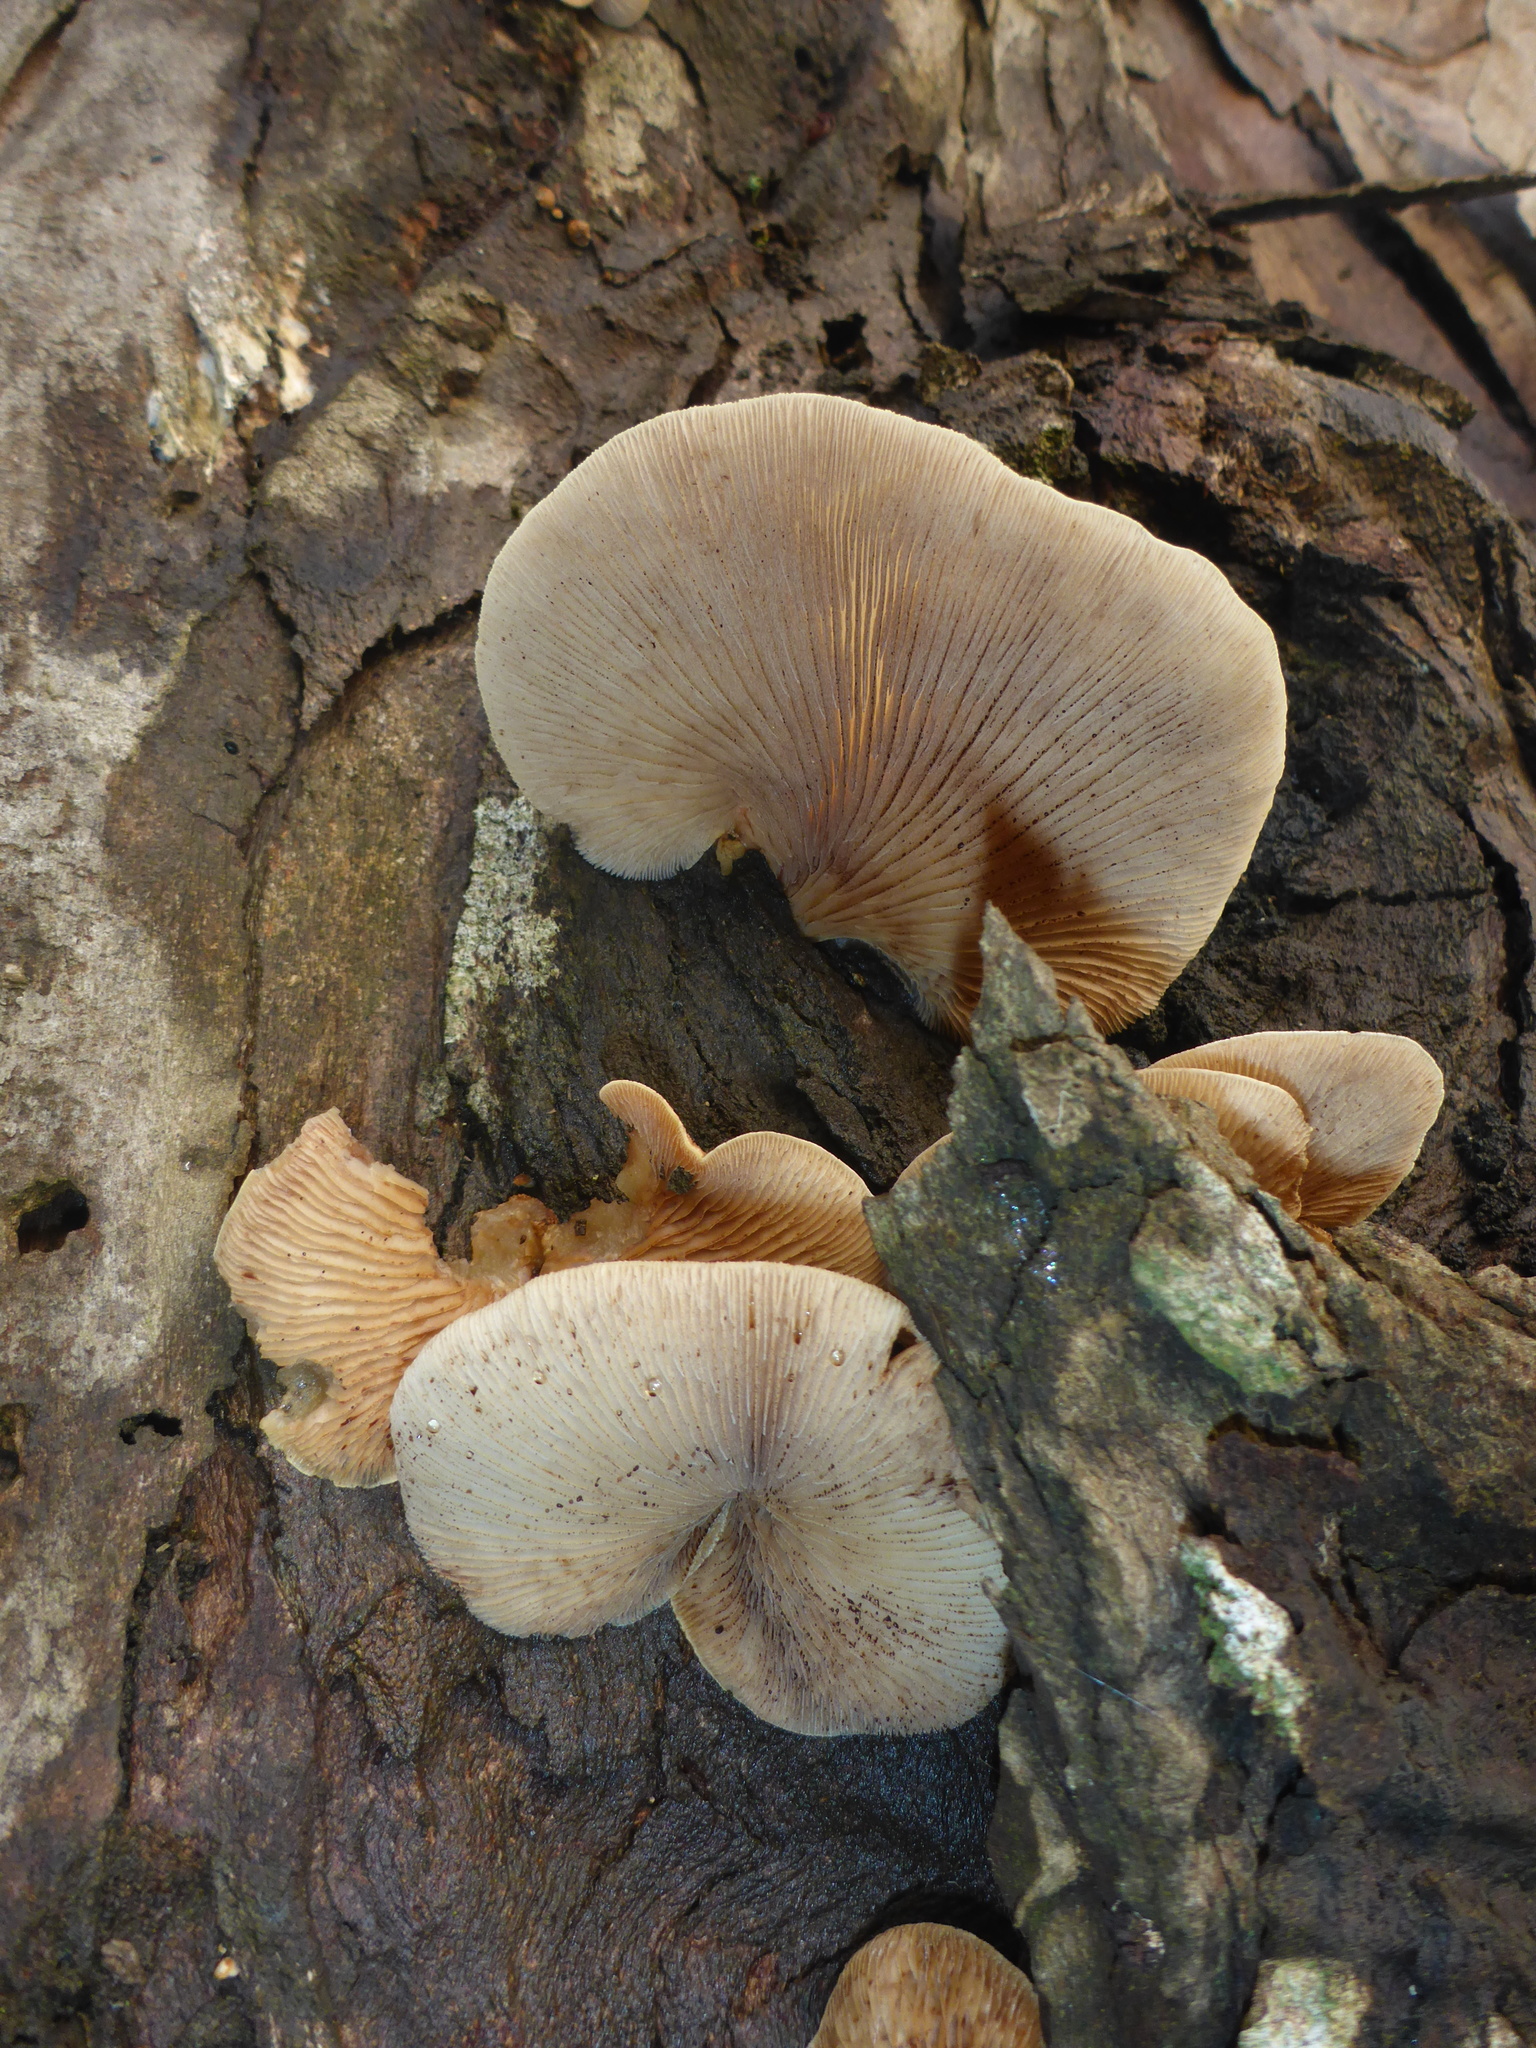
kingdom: Fungi
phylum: Basidiomycota
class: Agaricomycetes
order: Agaricales
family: Crepidotaceae
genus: Crepidotus
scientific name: Crepidotus applanatus
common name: Flat crep
